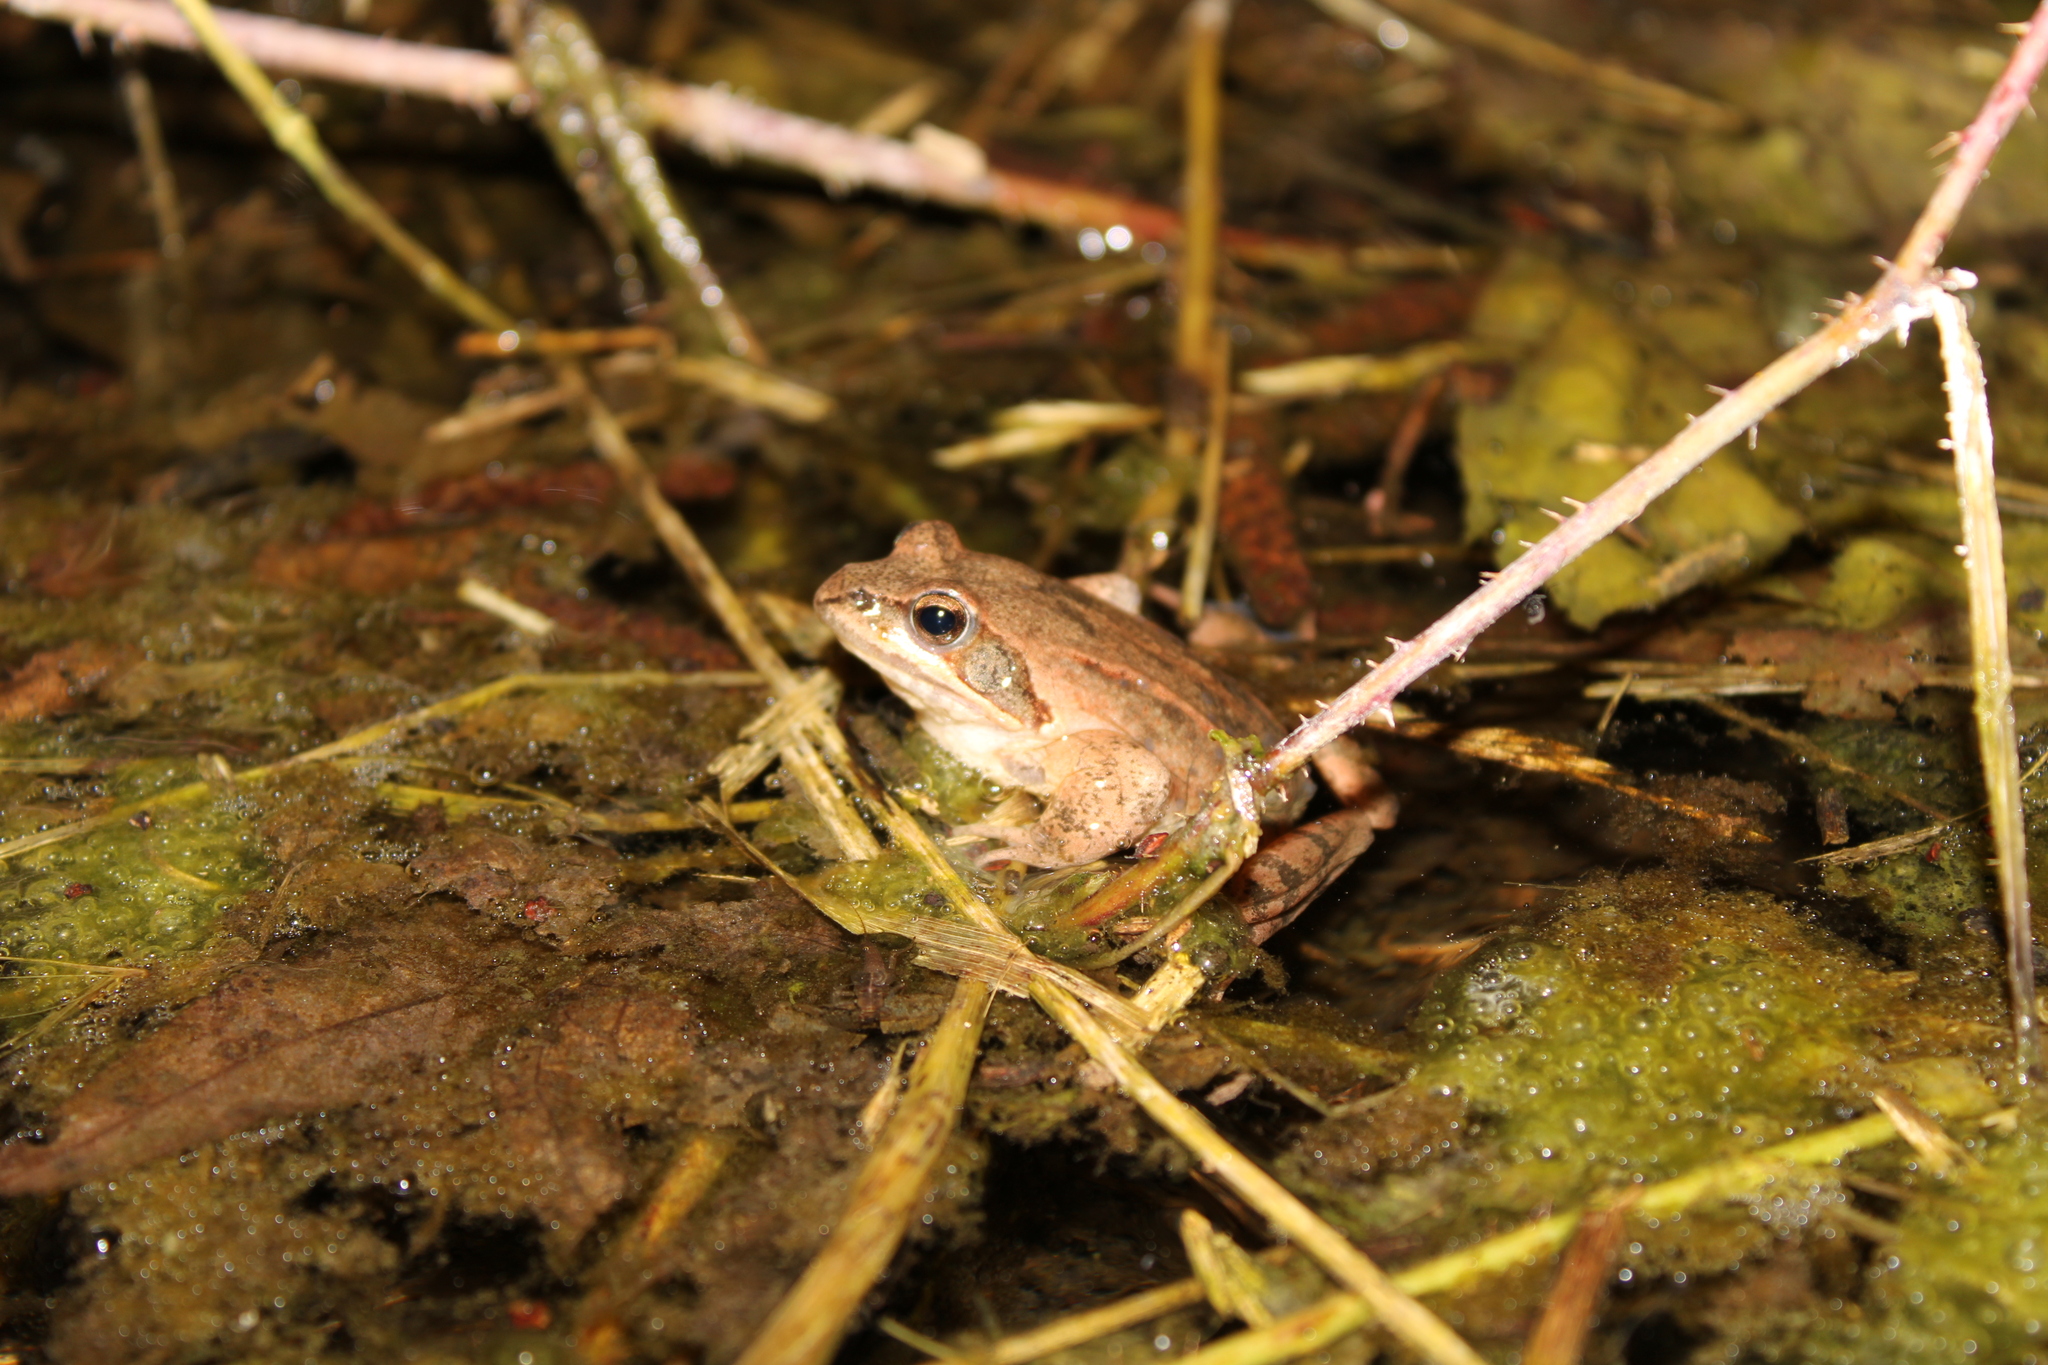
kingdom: Animalia
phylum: Chordata
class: Amphibia
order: Anura
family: Ranidae
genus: Rana
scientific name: Rana dalmatina
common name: Agile frog
